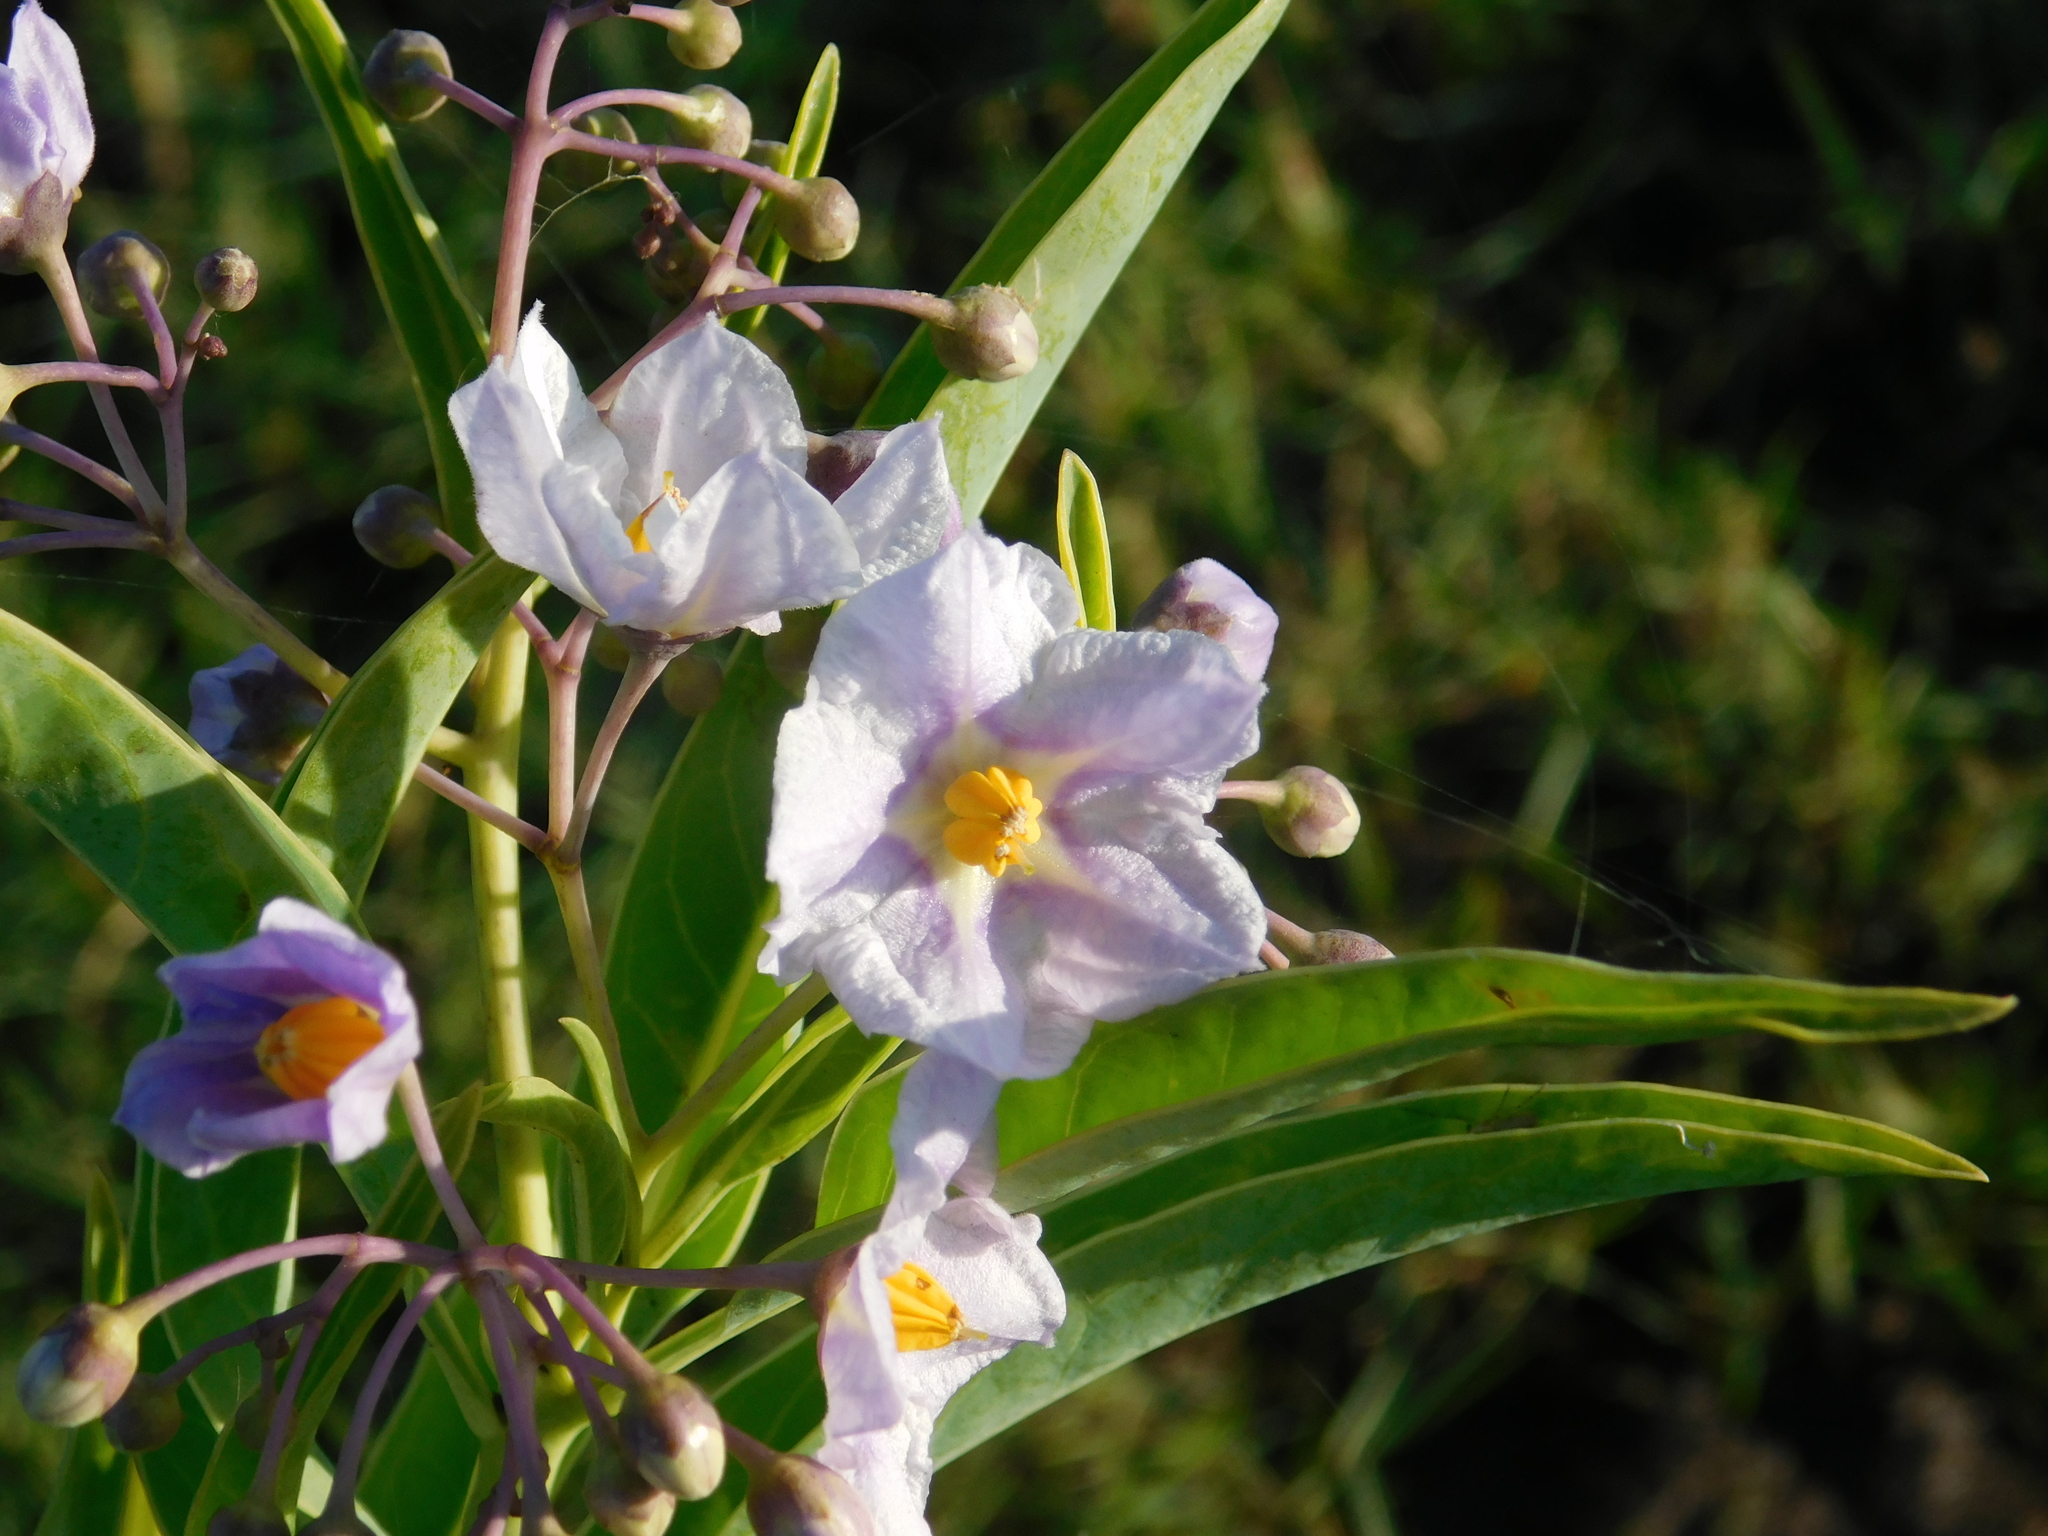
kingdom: Plantae
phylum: Tracheophyta
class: Magnoliopsida
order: Solanales
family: Solanaceae
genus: Solanum
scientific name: Solanum glaucophyllum
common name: Waxyleaf nightshade
